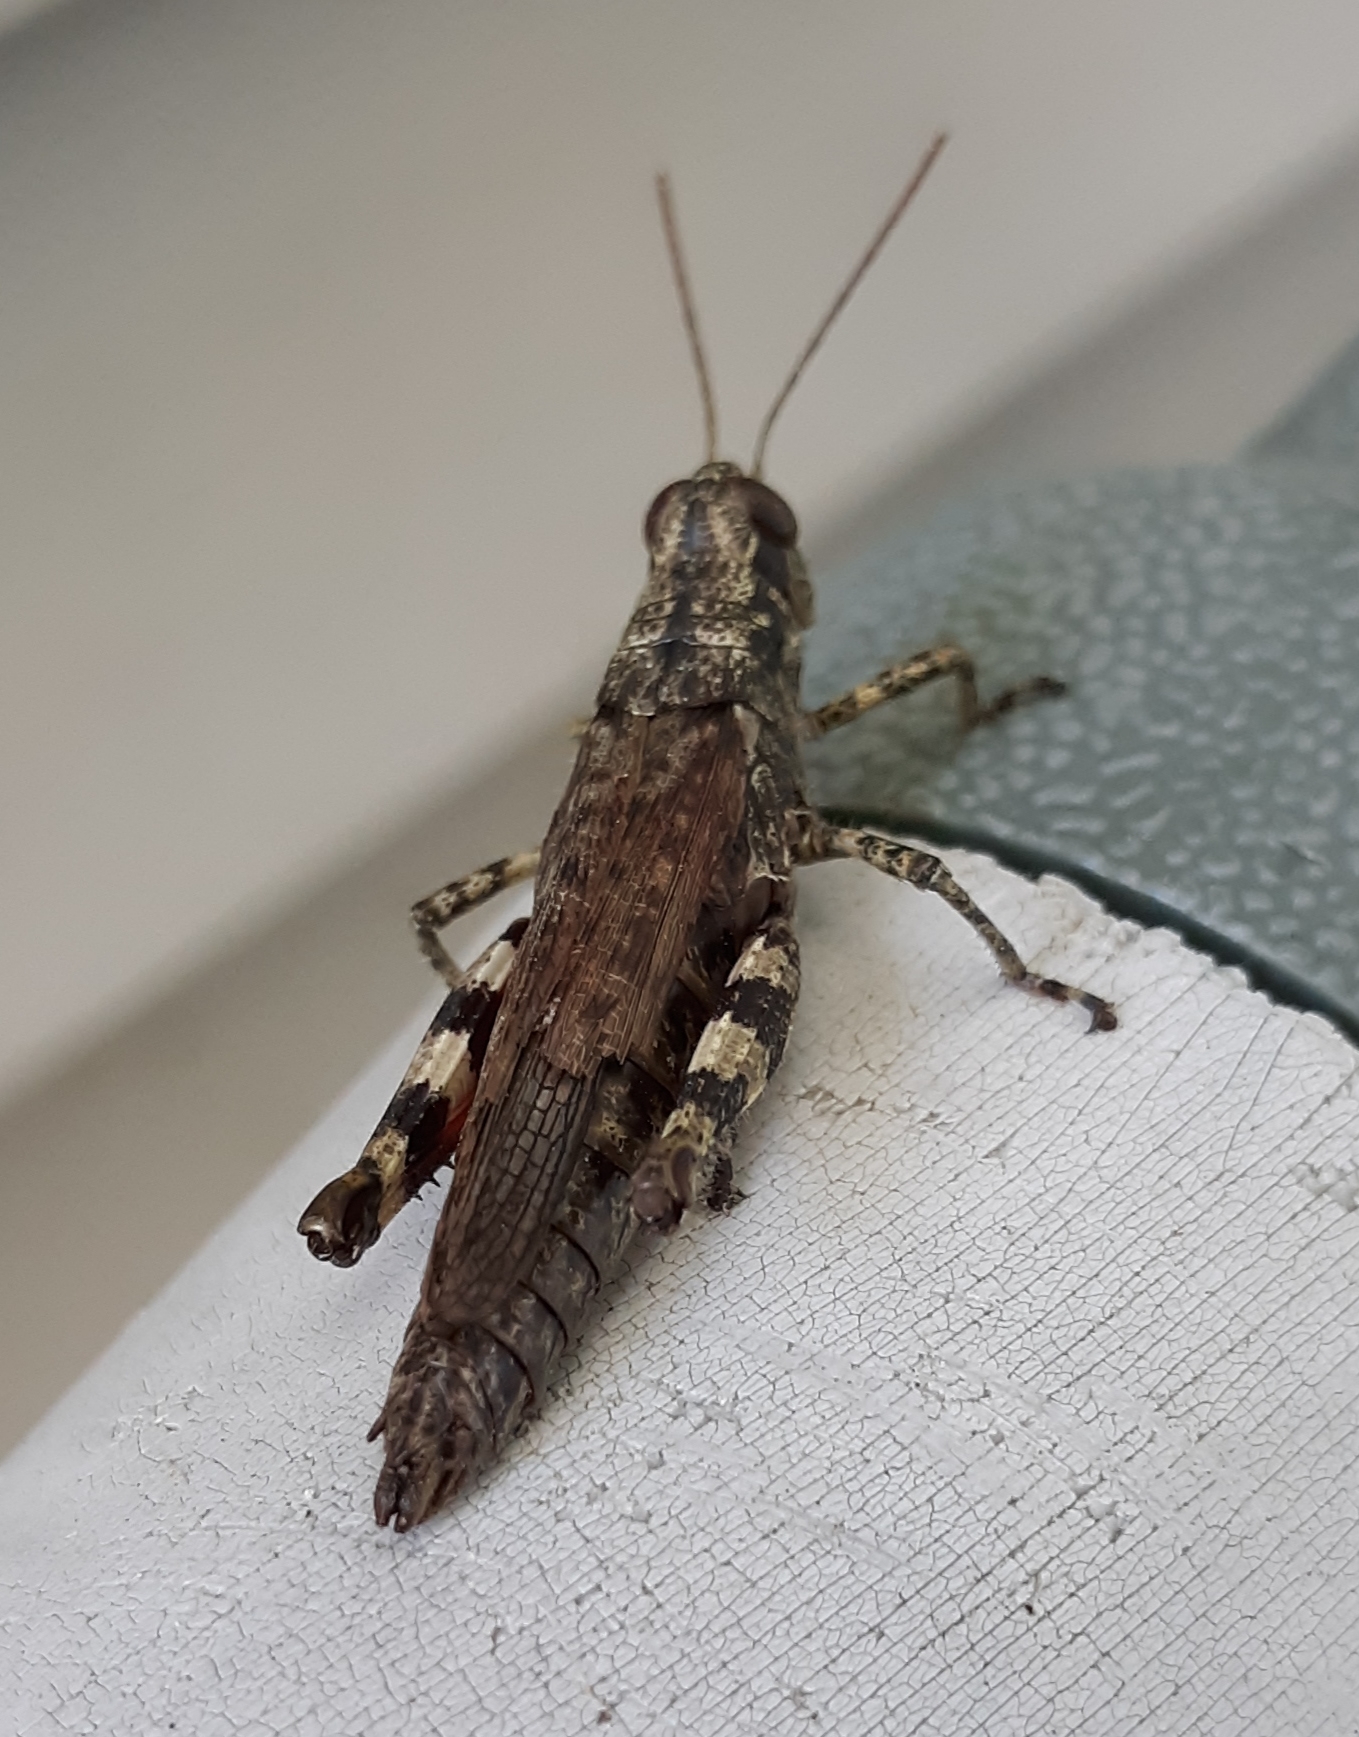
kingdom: Animalia
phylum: Arthropoda
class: Insecta
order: Orthoptera
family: Acrididae
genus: Melanoplus
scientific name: Melanoplus punctulatus
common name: Pine-tree spur-throat grasshopper
